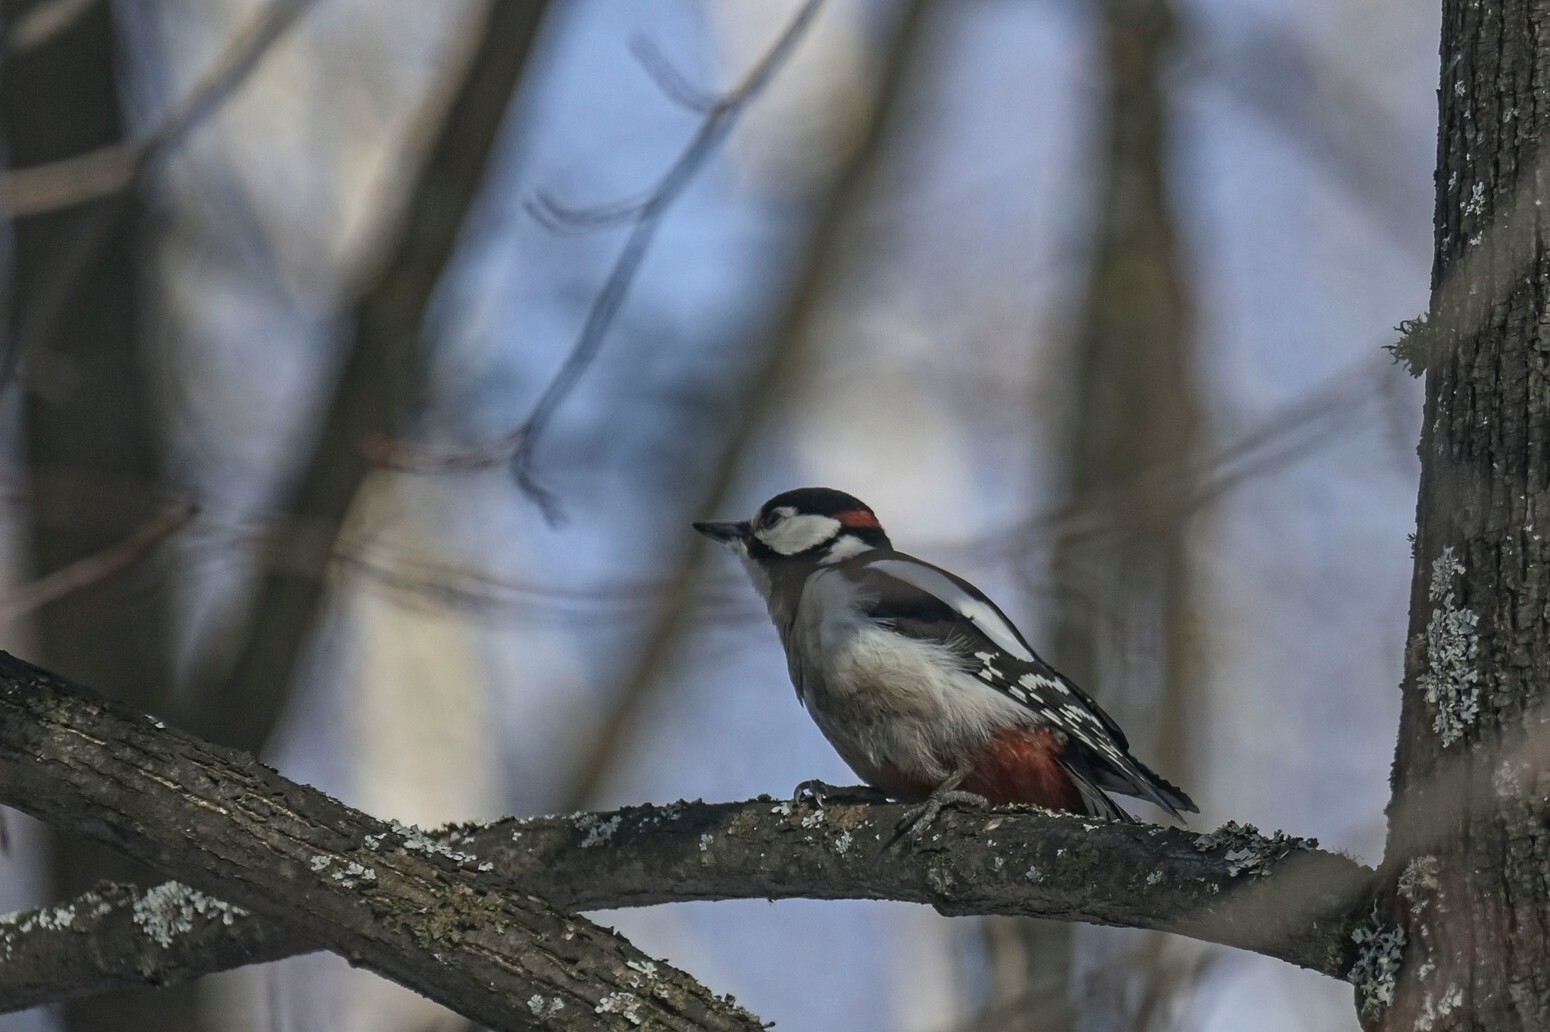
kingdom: Animalia
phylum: Chordata
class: Aves
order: Piciformes
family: Picidae
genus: Dendrocopos
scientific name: Dendrocopos major
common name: Great spotted woodpecker
